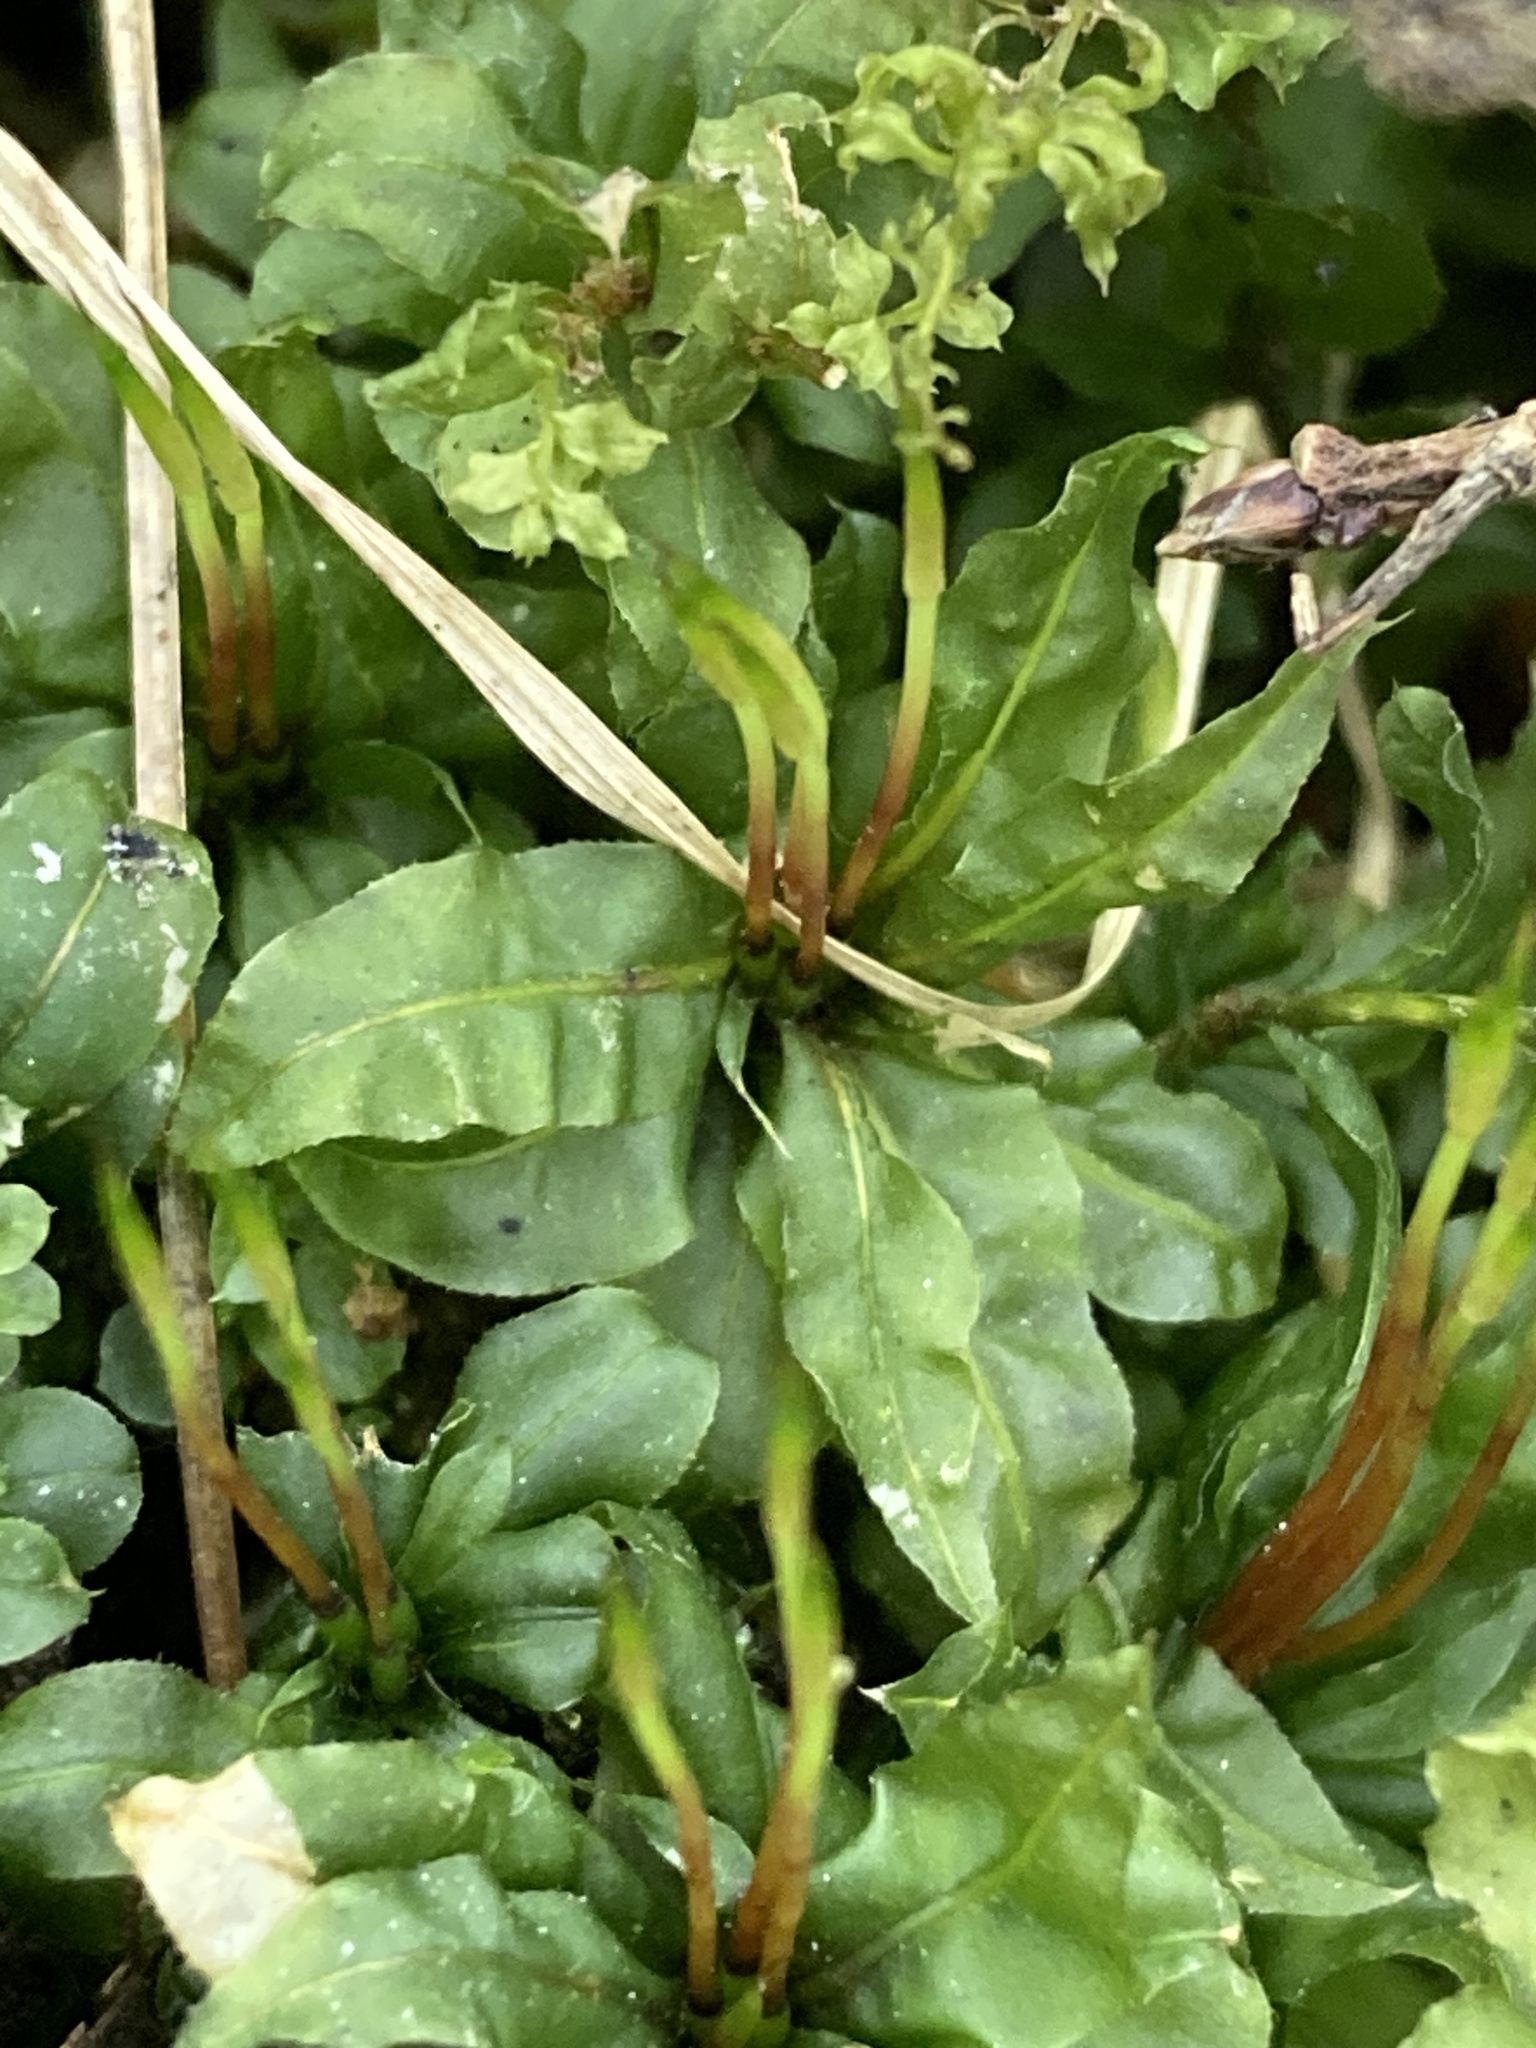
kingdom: Plantae
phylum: Bryophyta
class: Bryopsida
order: Bryales
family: Mniaceae
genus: Plagiomnium
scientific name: Plagiomnium undulatum
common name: Hart's-tongue thyme-moss
